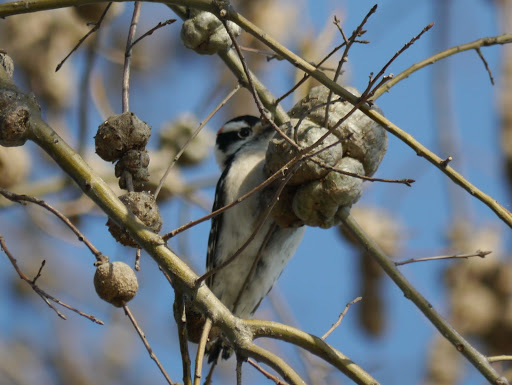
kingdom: Animalia
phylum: Chordata
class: Aves
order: Piciformes
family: Picidae
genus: Dryobates
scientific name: Dryobates pubescens
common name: Downy woodpecker
